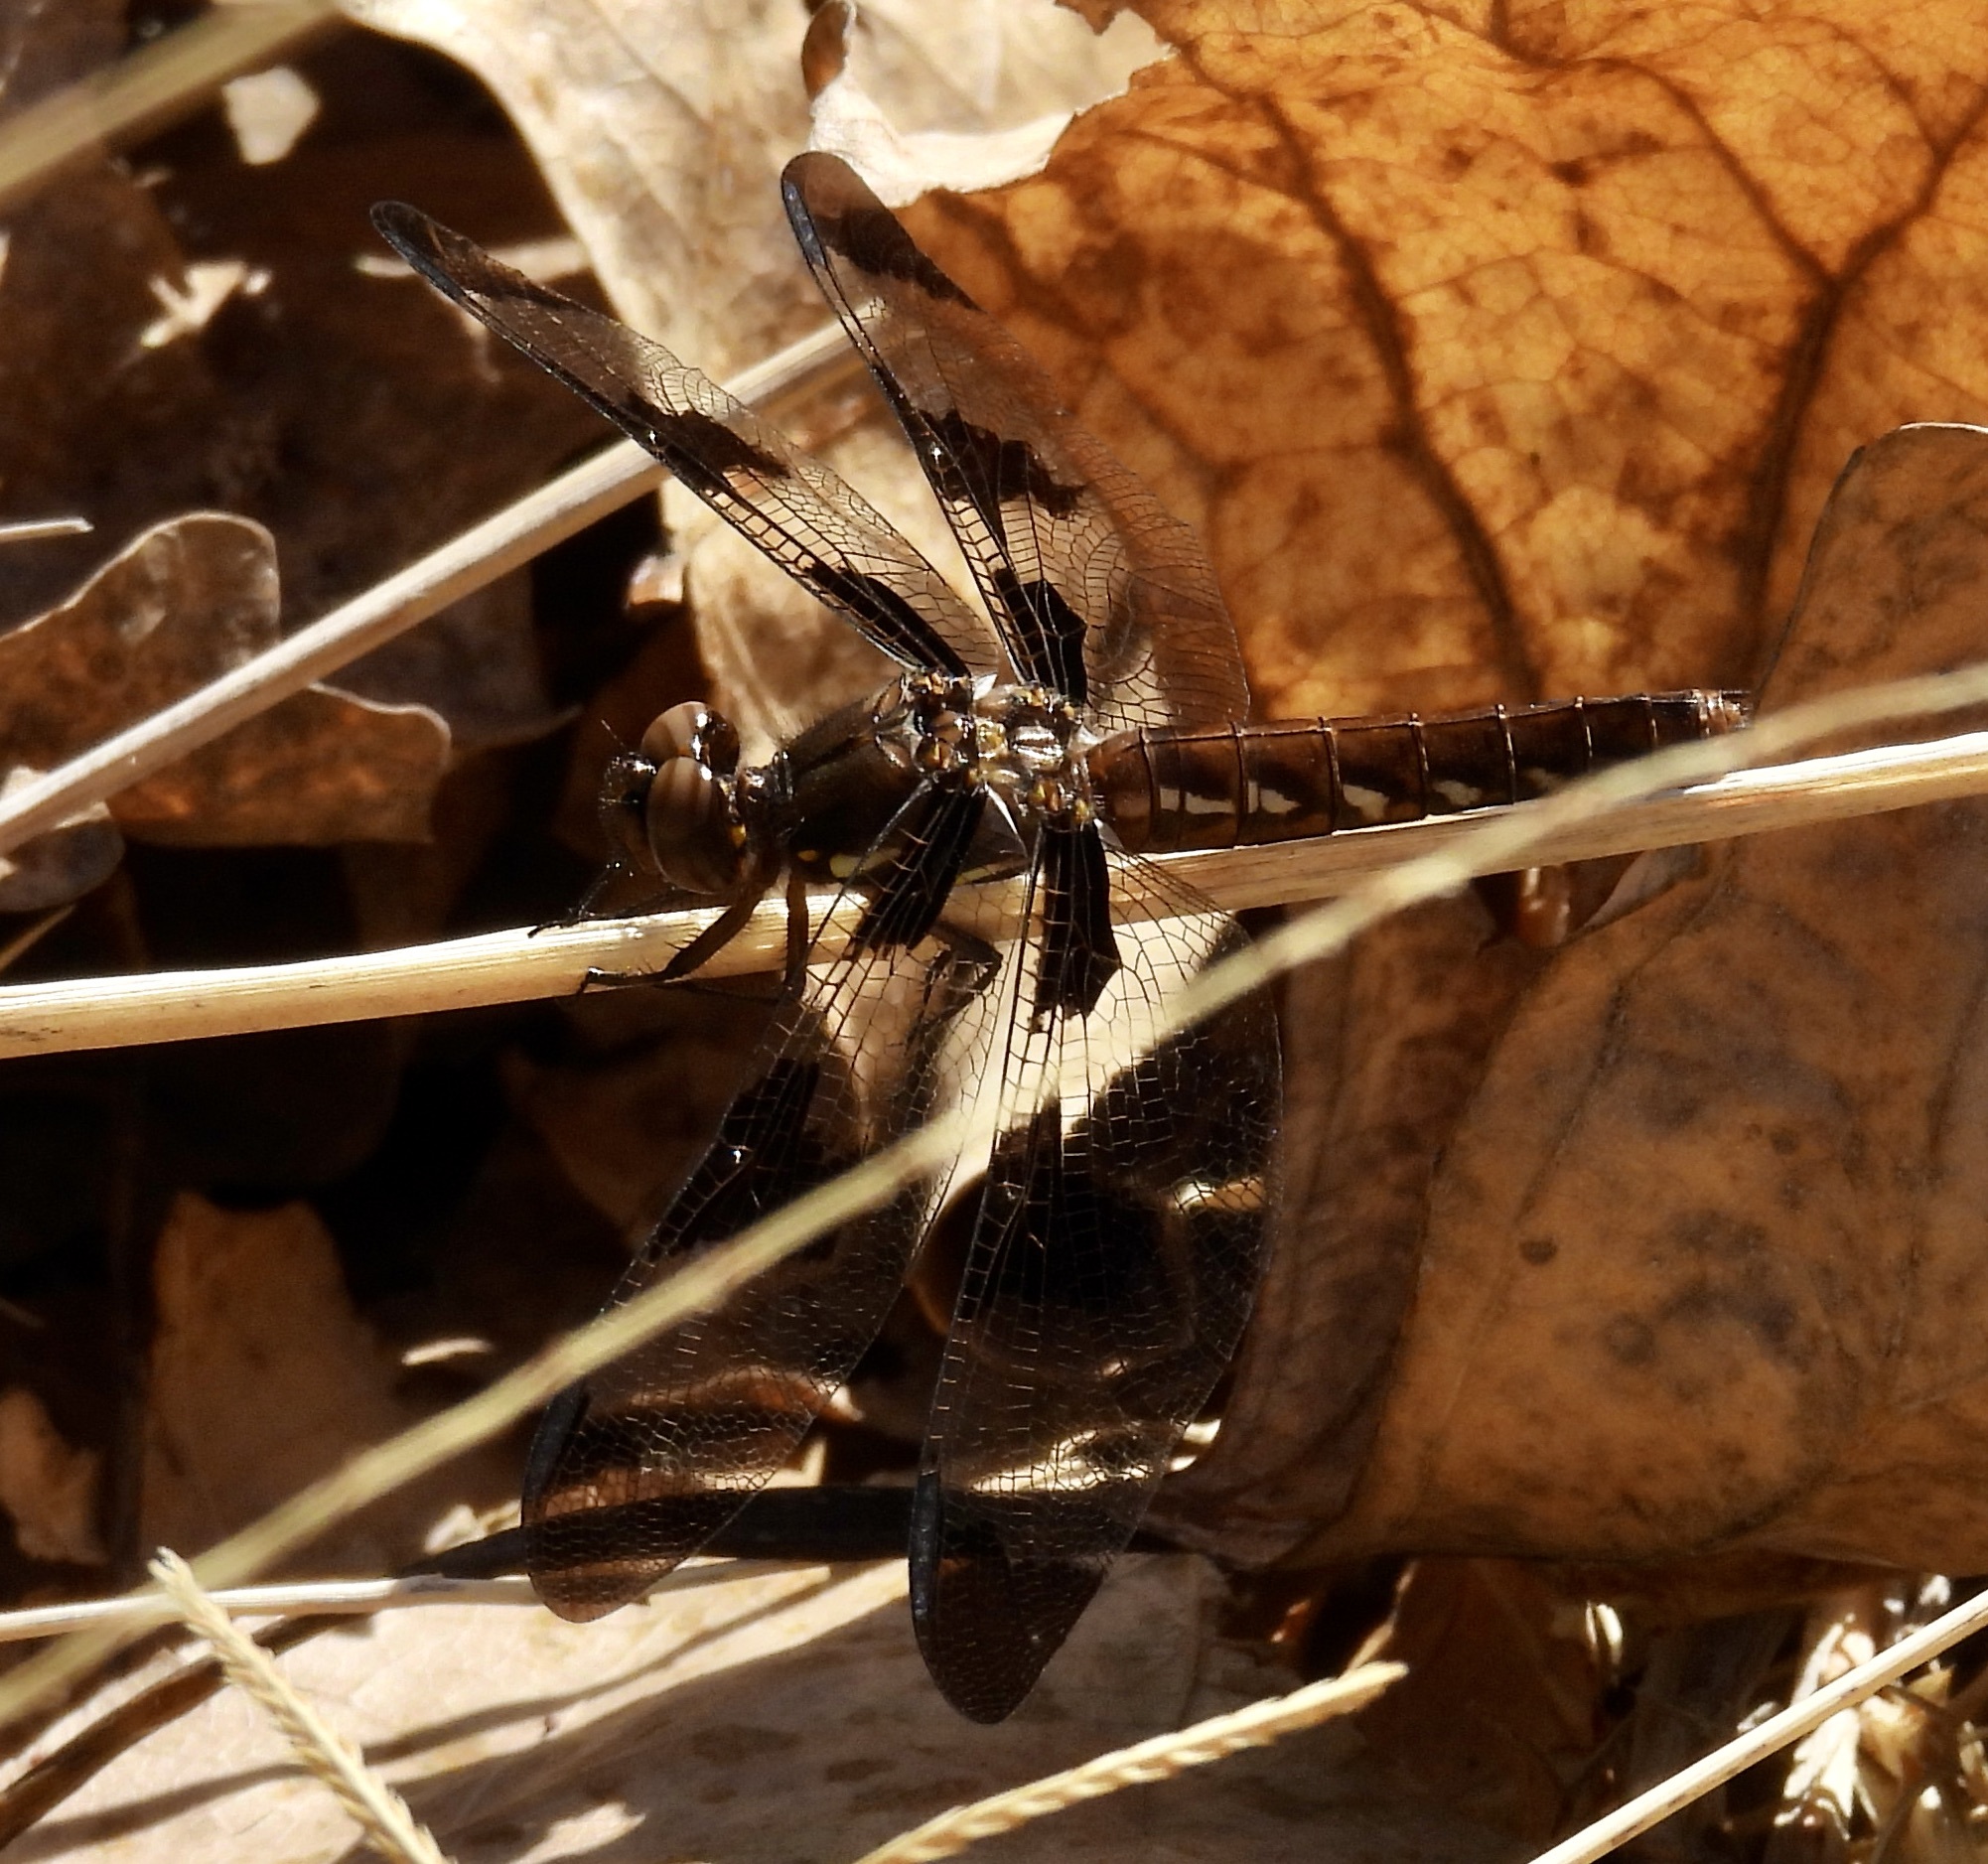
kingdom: Animalia
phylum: Arthropoda
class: Insecta
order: Odonata
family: Libellulidae
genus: Plathemis
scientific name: Plathemis lydia
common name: Common whitetail
